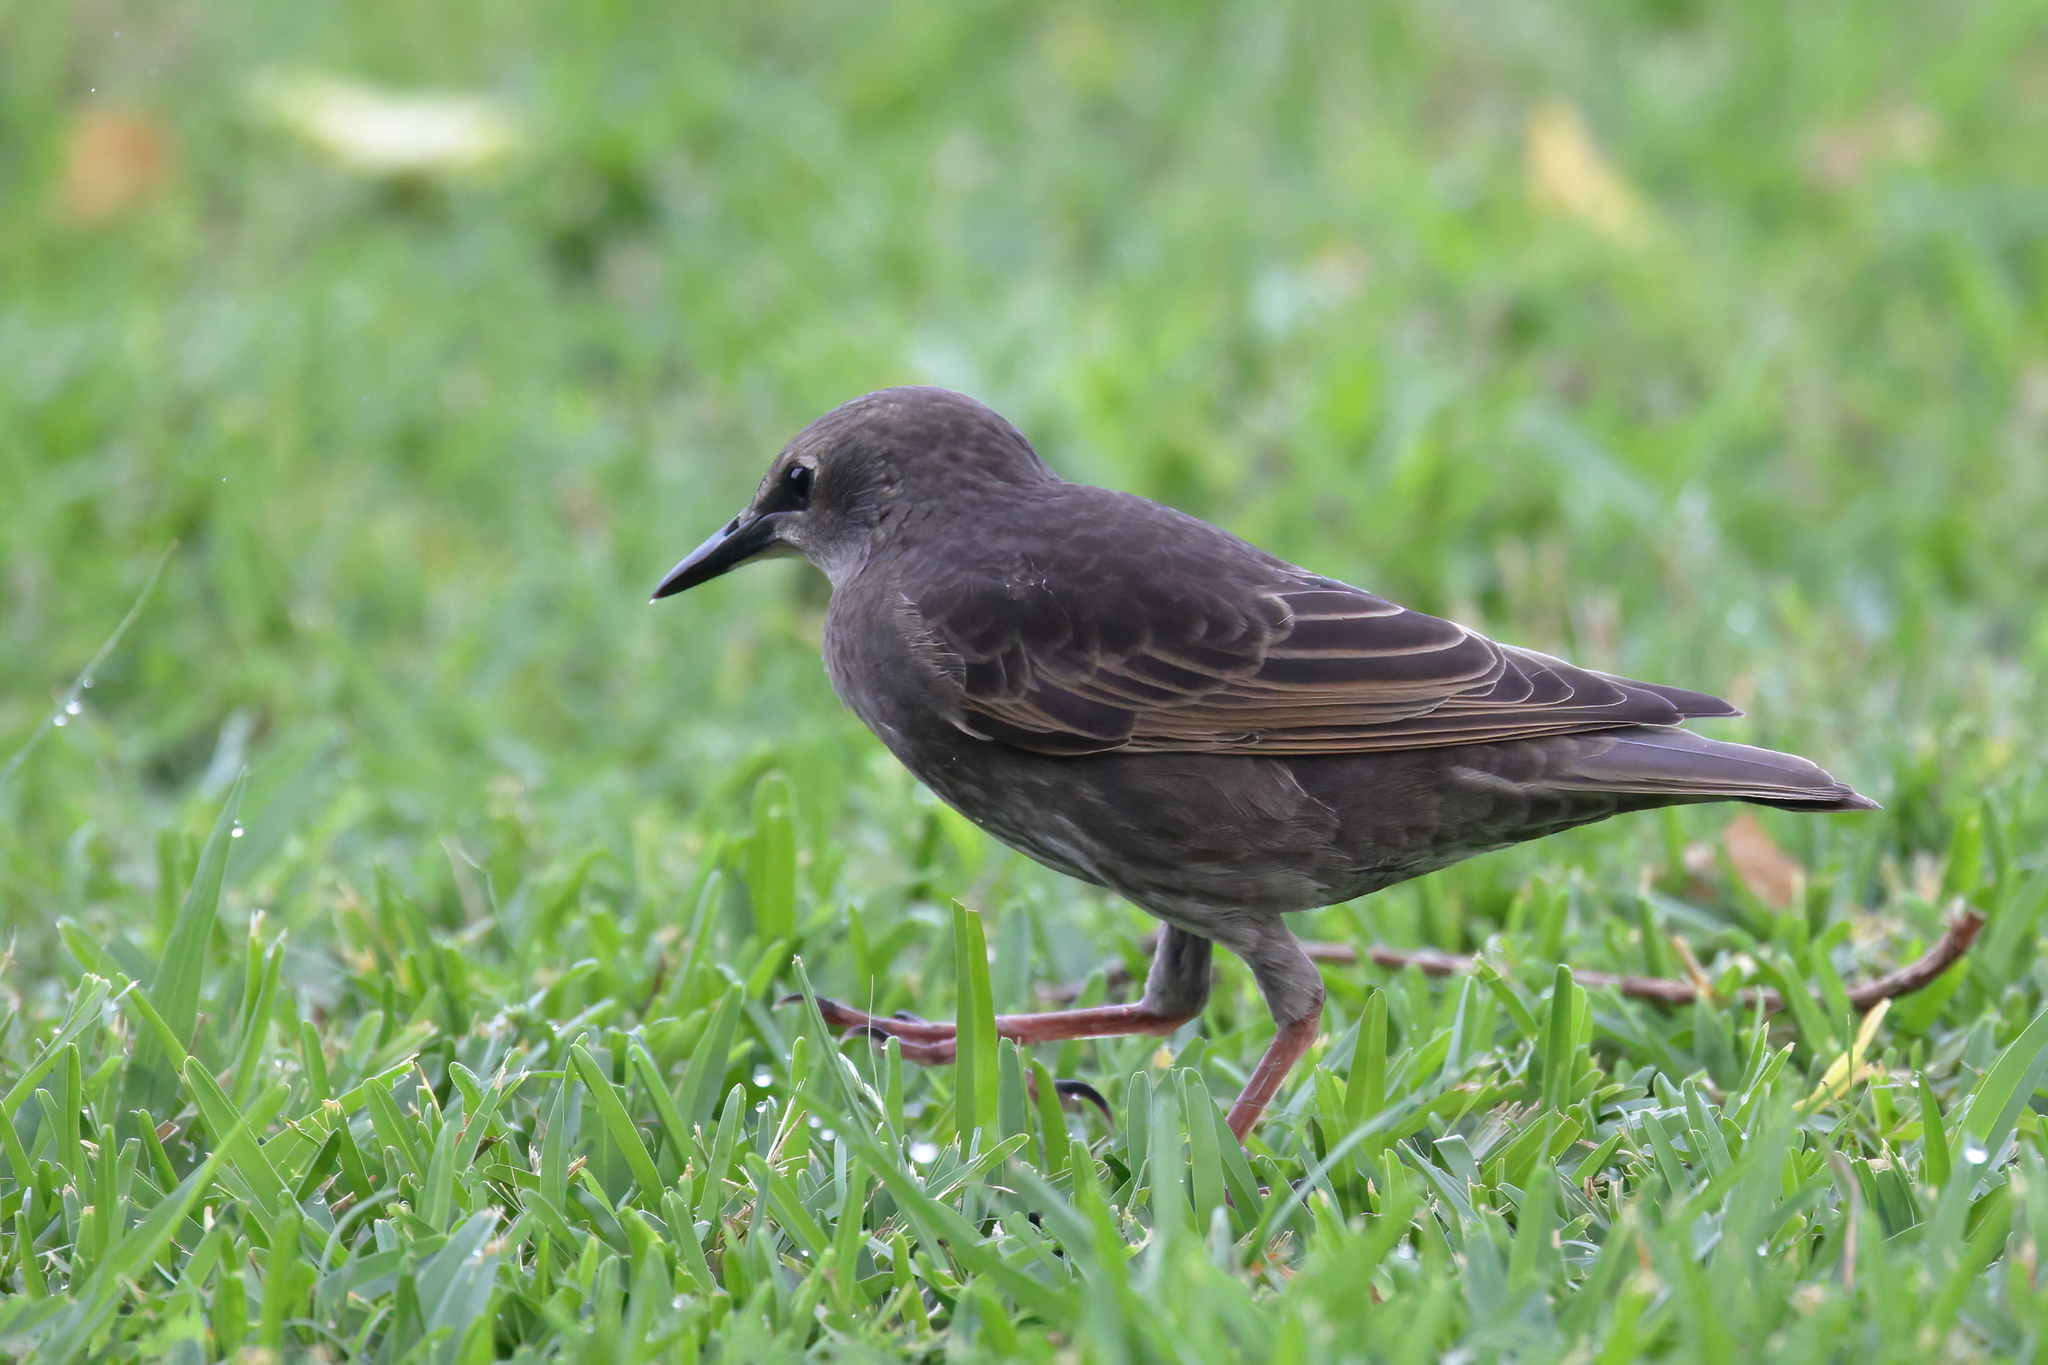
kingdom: Animalia
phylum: Chordata
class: Aves
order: Passeriformes
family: Sturnidae
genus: Sturnus
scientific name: Sturnus vulgaris
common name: Common starling
